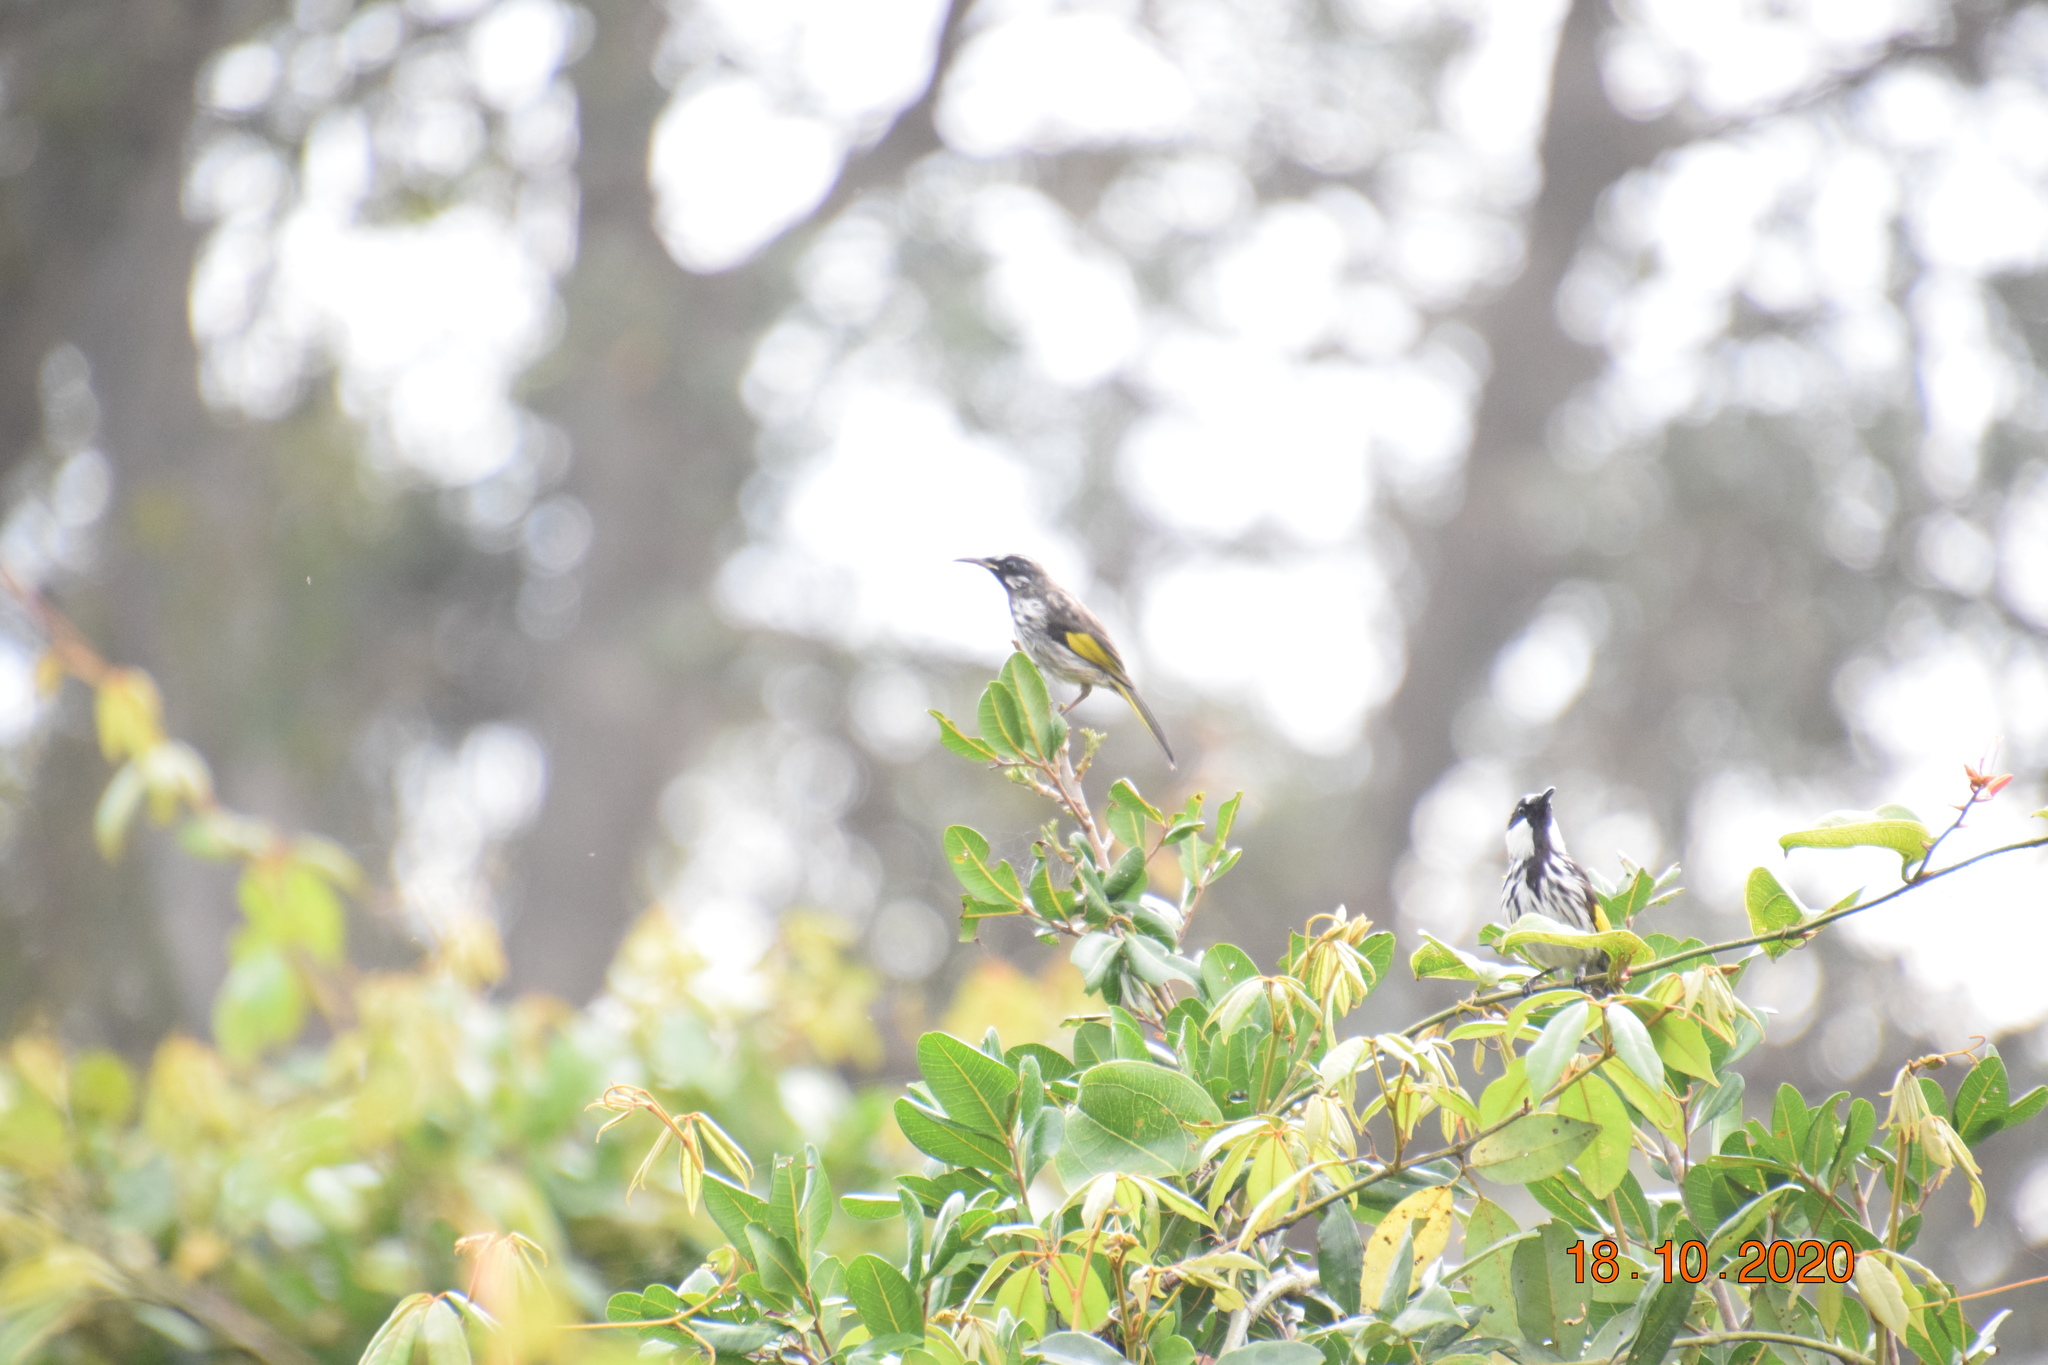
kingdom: Animalia
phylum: Chordata
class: Aves
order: Passeriformes
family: Meliphagidae
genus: Phylidonyris
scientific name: Phylidonyris niger
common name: White-cheeked honeyeater
